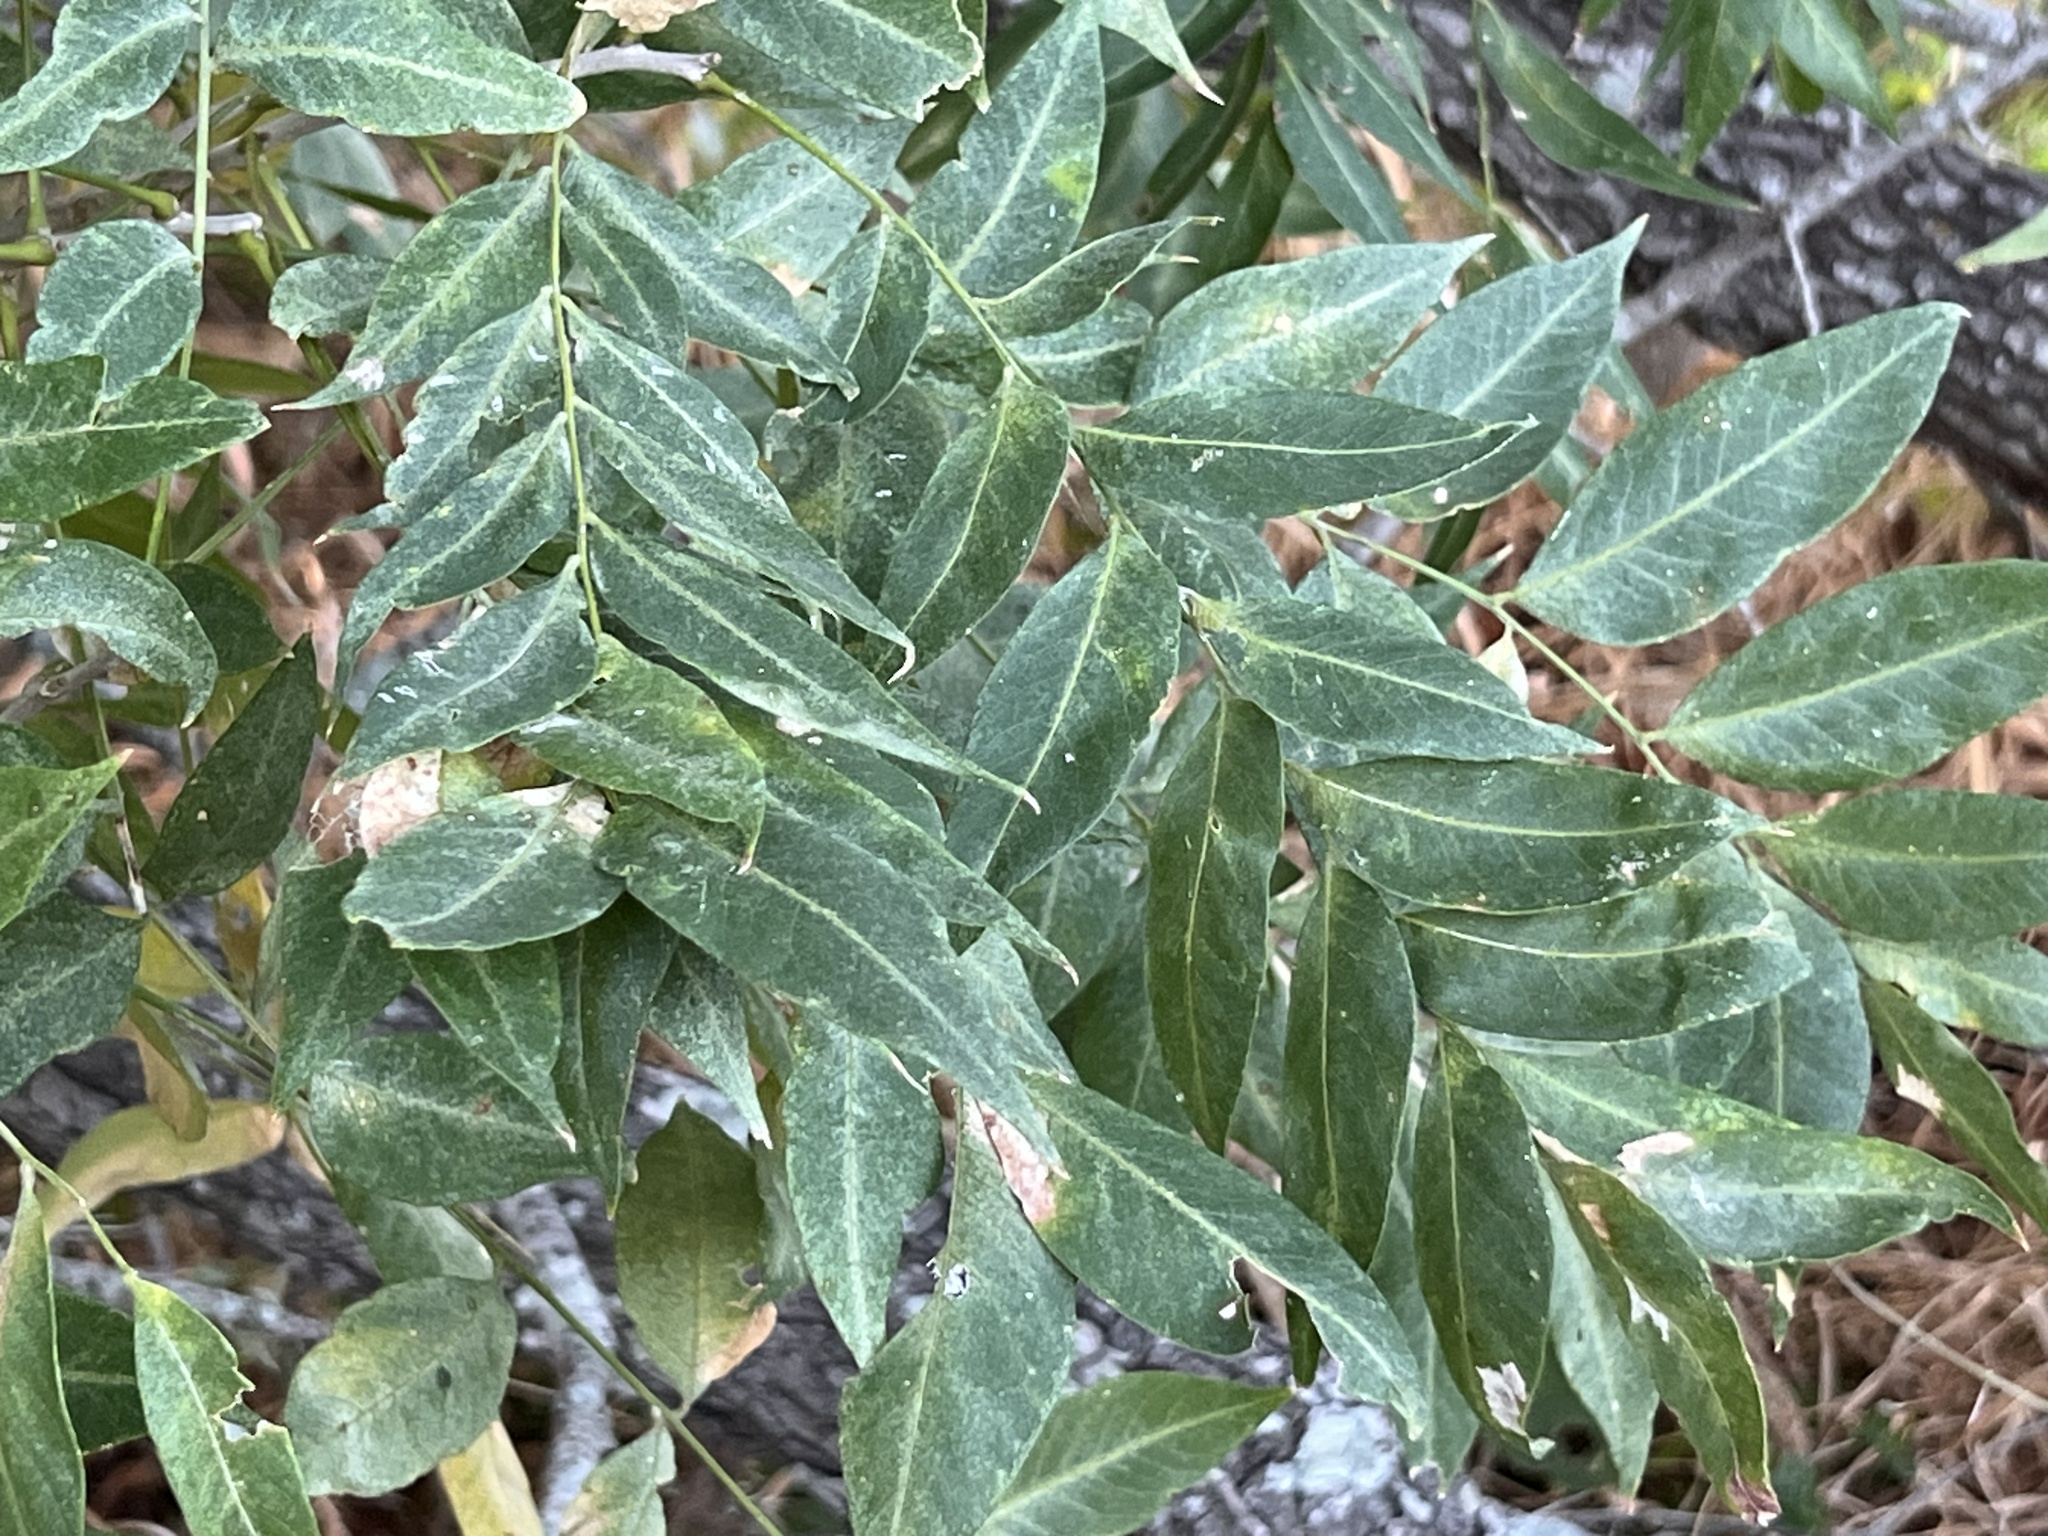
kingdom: Plantae
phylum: Tracheophyta
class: Magnoliopsida
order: Sapindales
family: Sapindaceae
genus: Sapindus
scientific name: Sapindus drummondii
